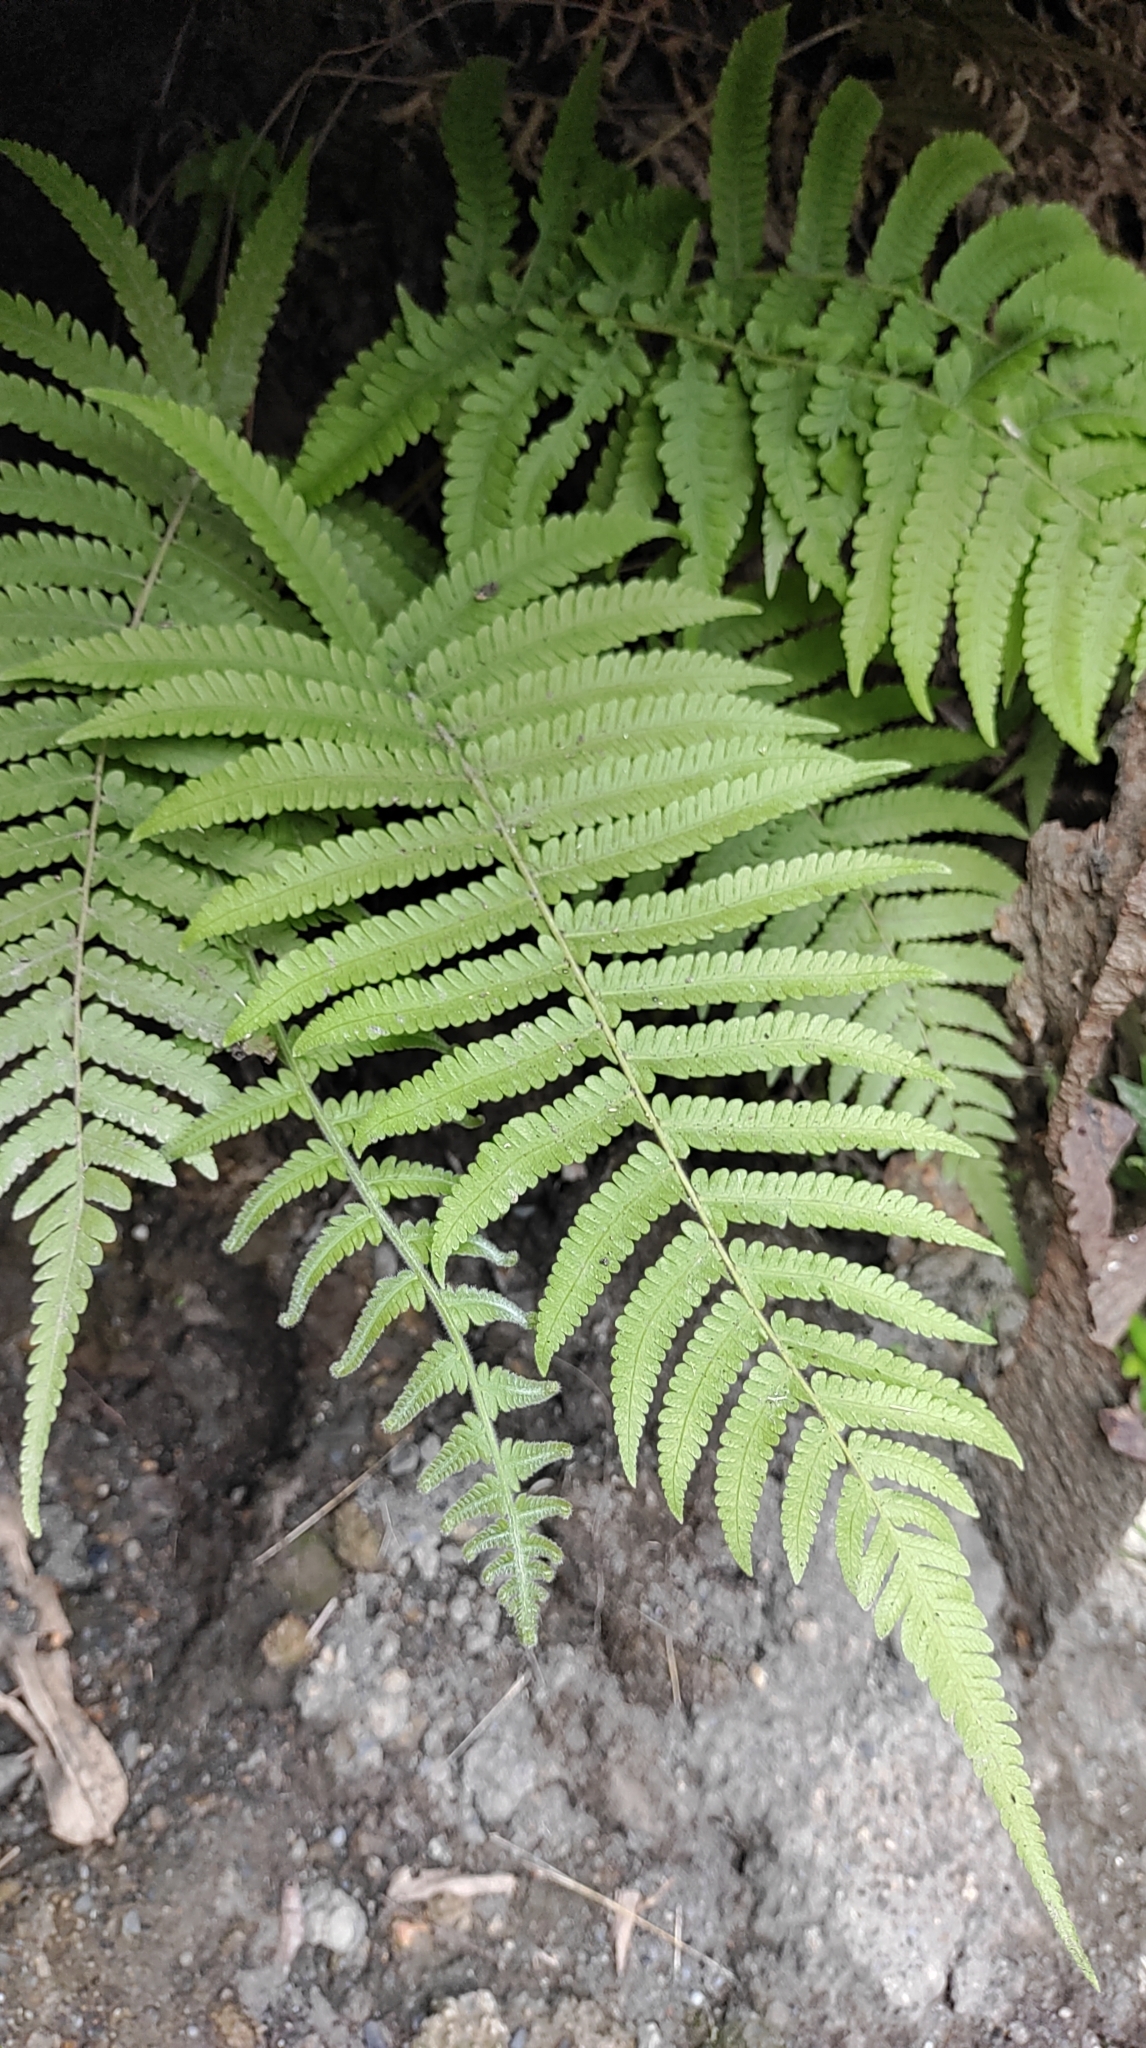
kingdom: Plantae
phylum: Tracheophyta
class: Polypodiopsida
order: Polypodiales
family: Thelypteridaceae
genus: Christella
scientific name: Christella parasitica
